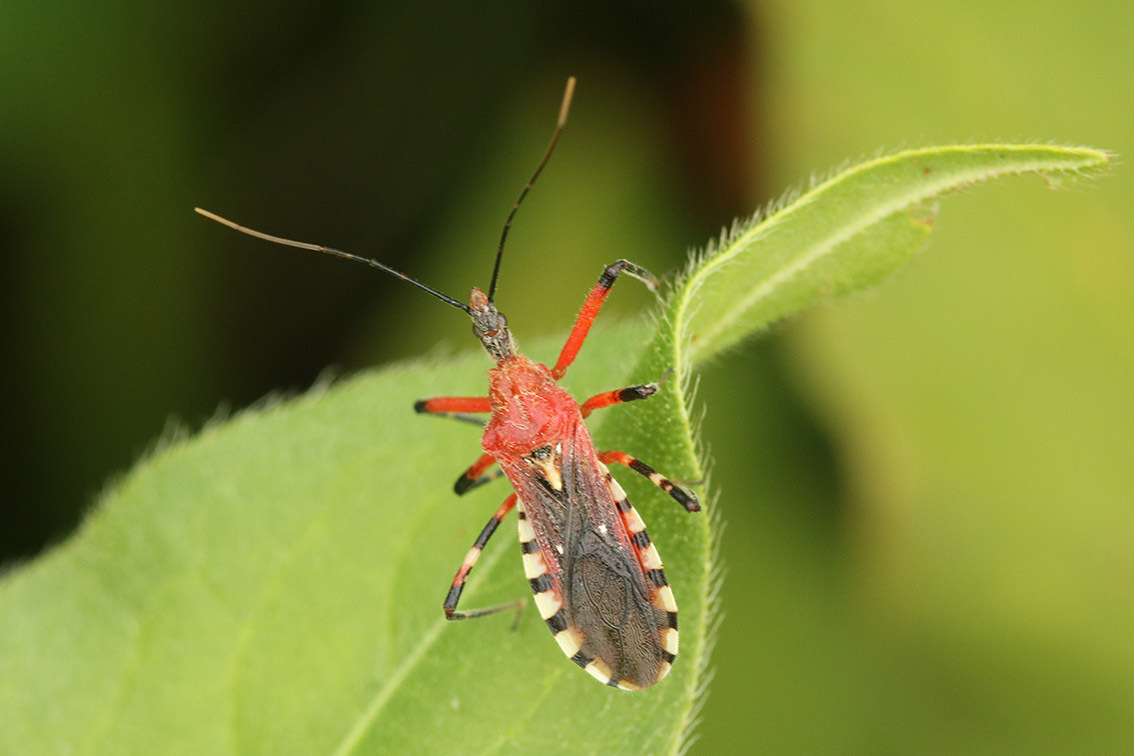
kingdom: Animalia
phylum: Arthropoda
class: Insecta
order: Hemiptera
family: Reduviidae
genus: Cosmoclopius
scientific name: Cosmoclopius poecilus
